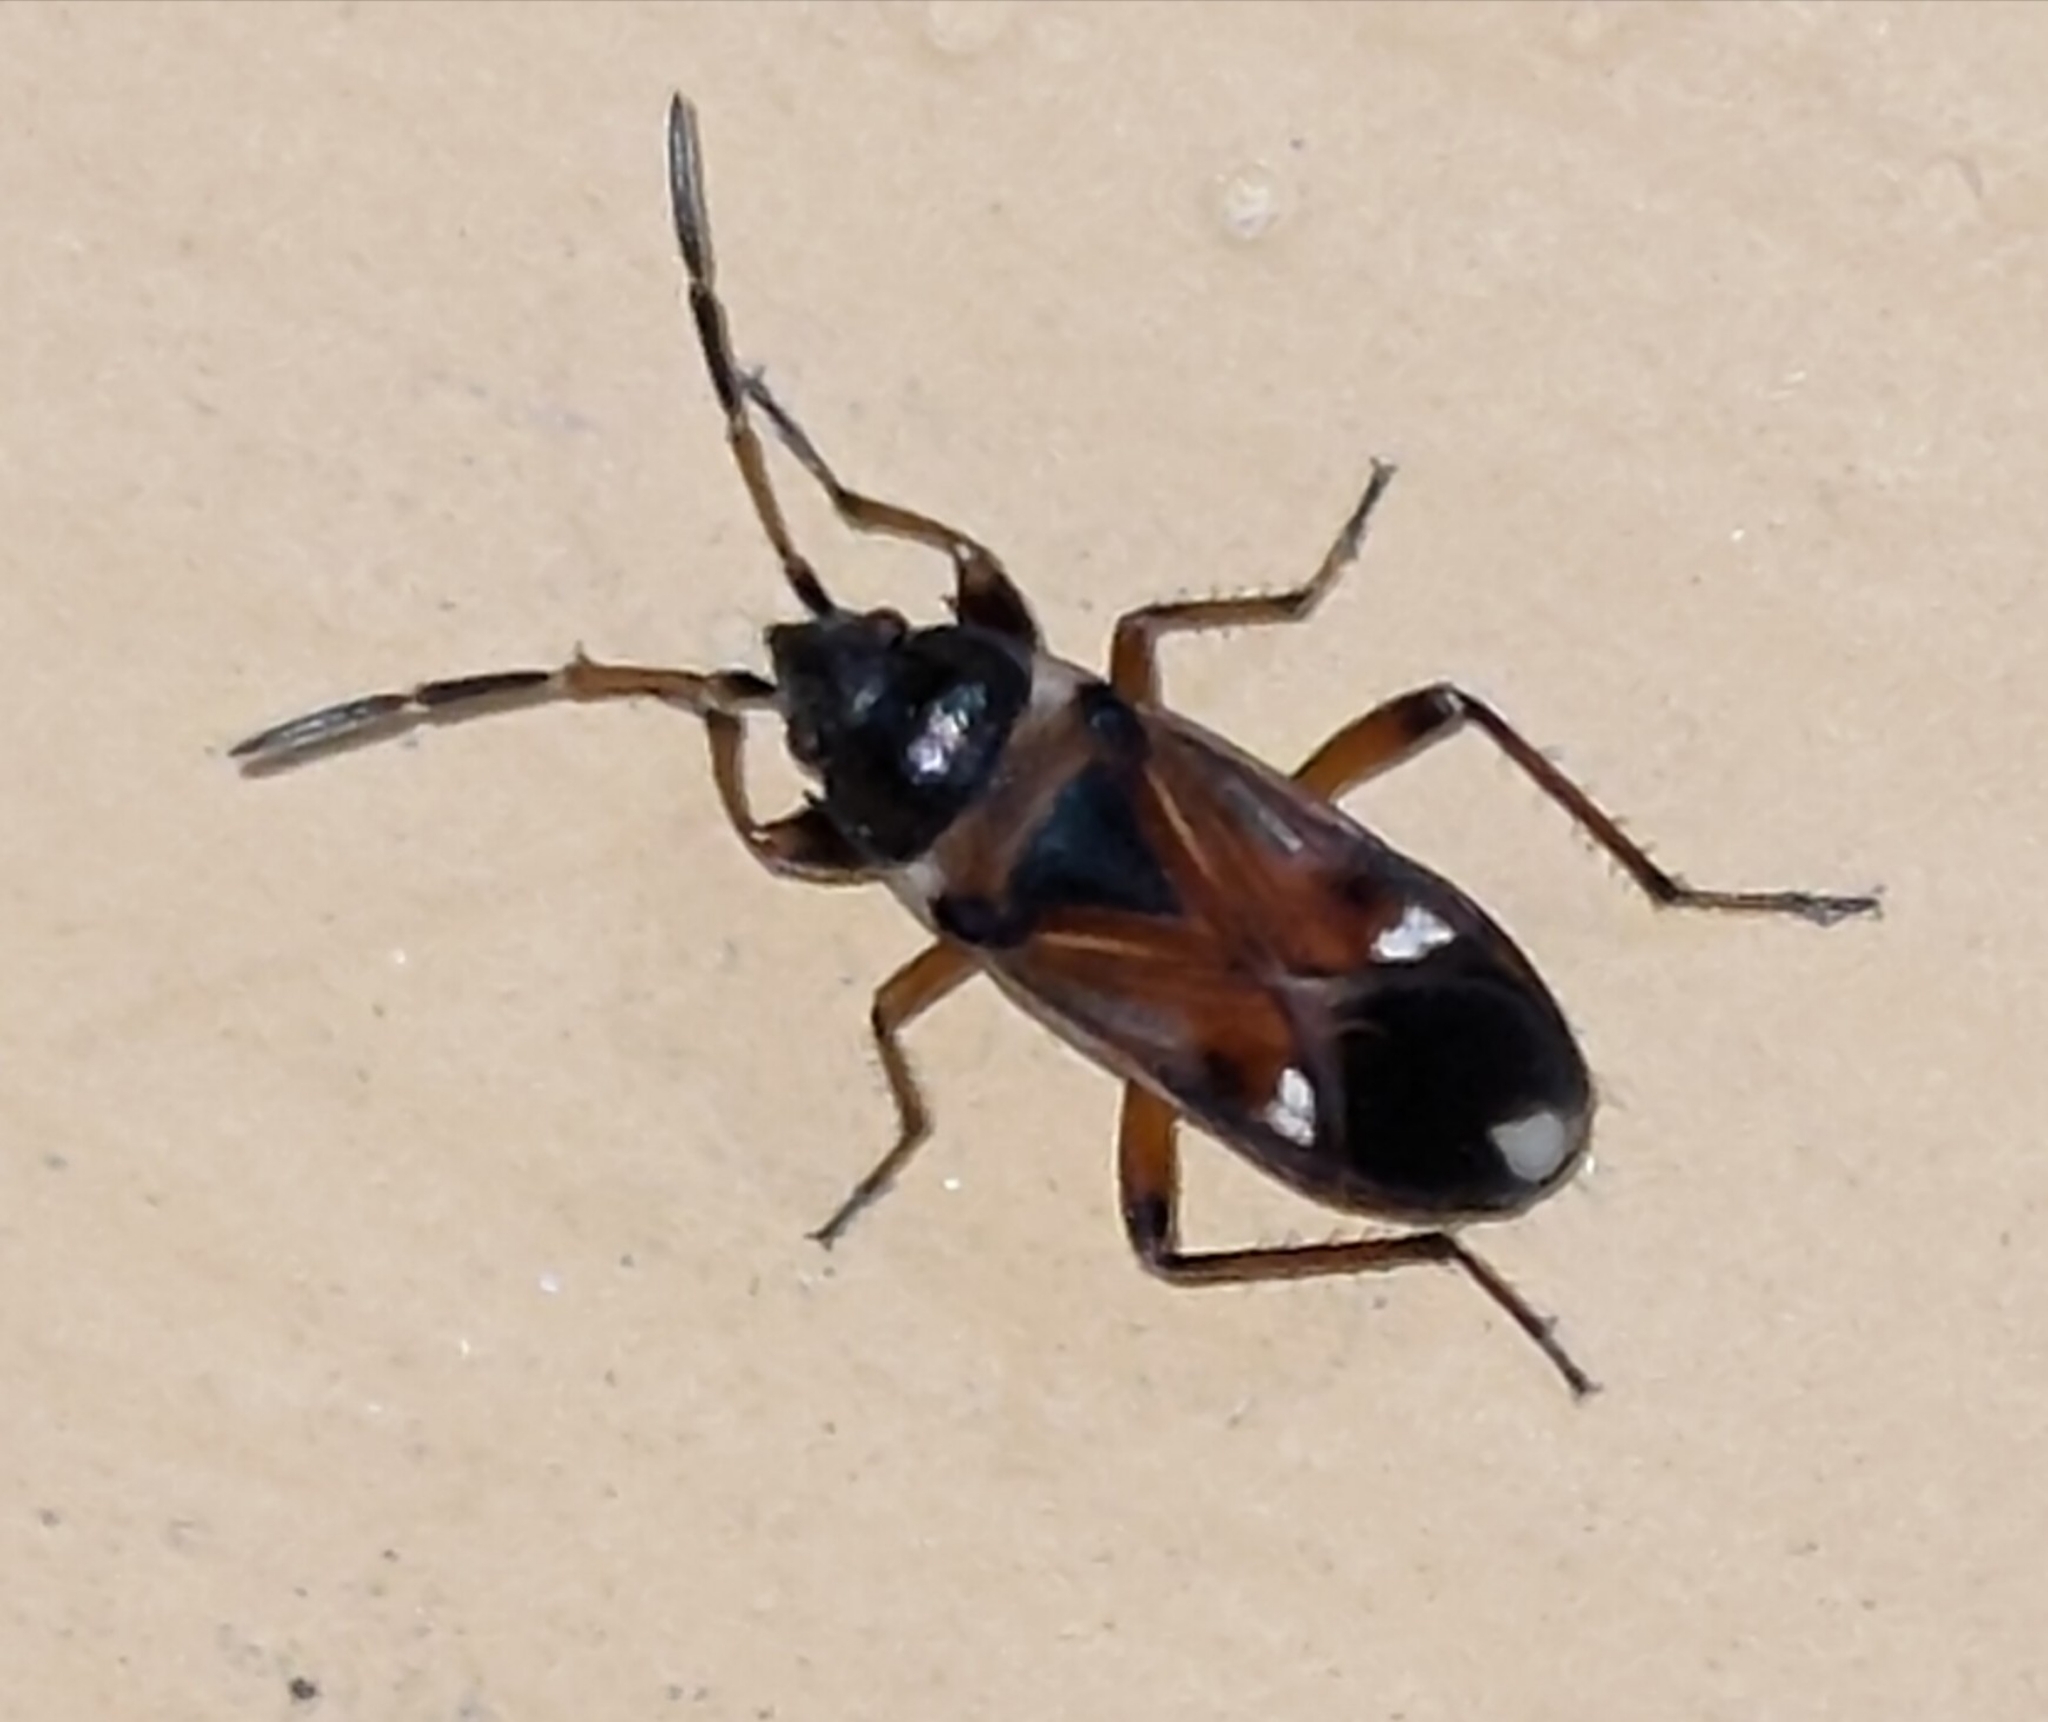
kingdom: Animalia
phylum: Arthropoda
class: Insecta
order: Hemiptera
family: Rhyparochromidae
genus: Raglius
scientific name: Raglius alboacuminatus
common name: Dirt-colored seed bug
